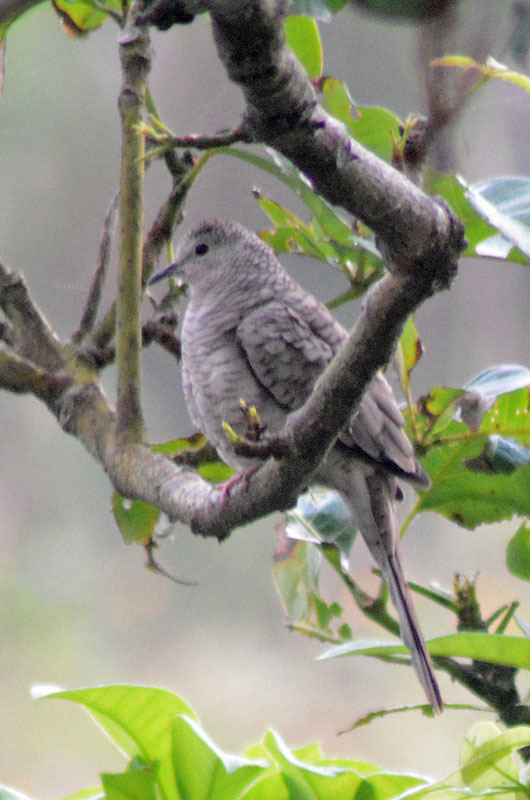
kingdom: Animalia
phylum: Chordata
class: Aves
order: Columbiformes
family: Columbidae
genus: Columbina
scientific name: Columbina inca
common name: Inca dove
